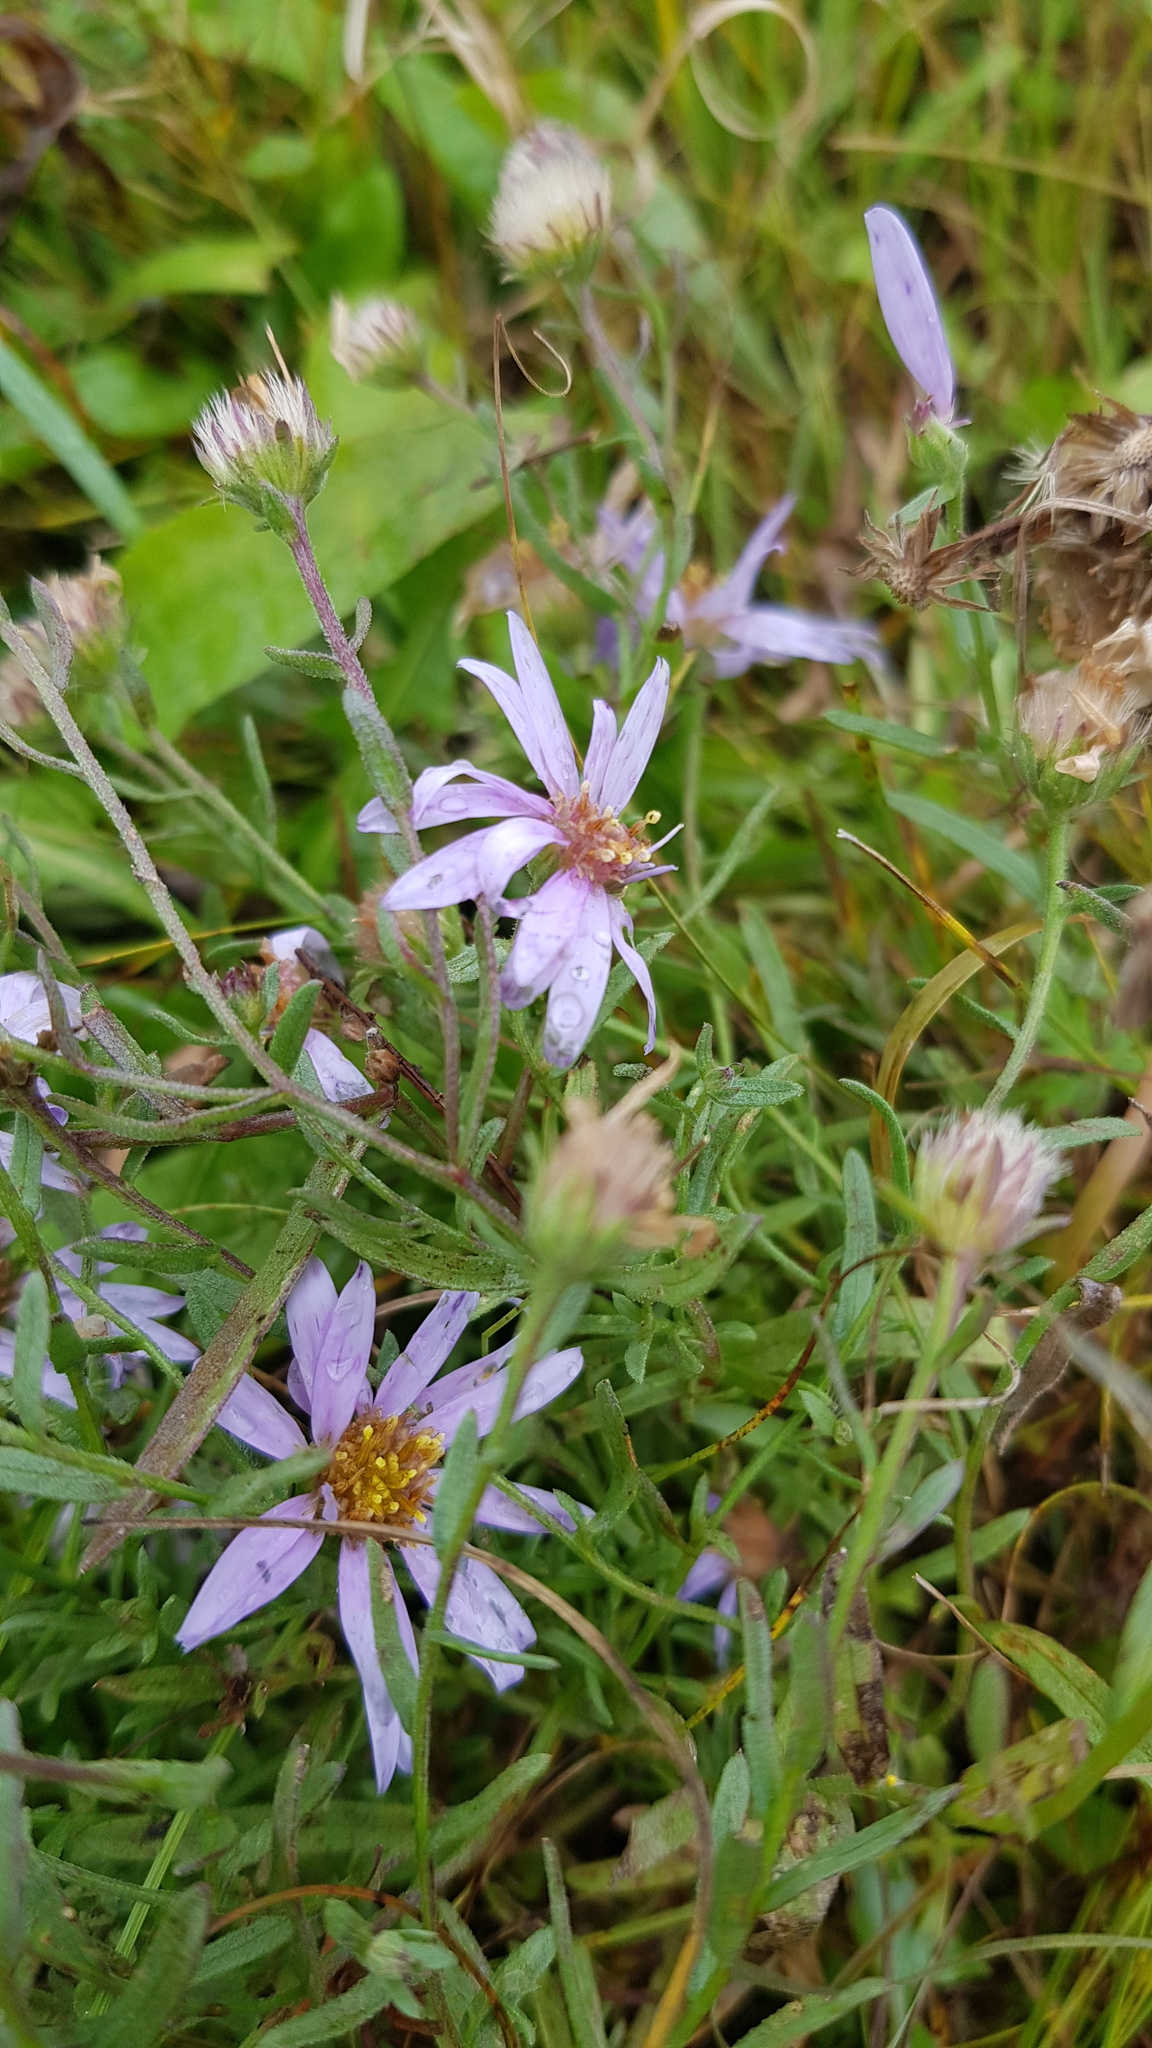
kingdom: Plantae
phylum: Tracheophyta
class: Magnoliopsida
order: Asterales
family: Asteraceae
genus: Galatella
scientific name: Galatella dahurica
